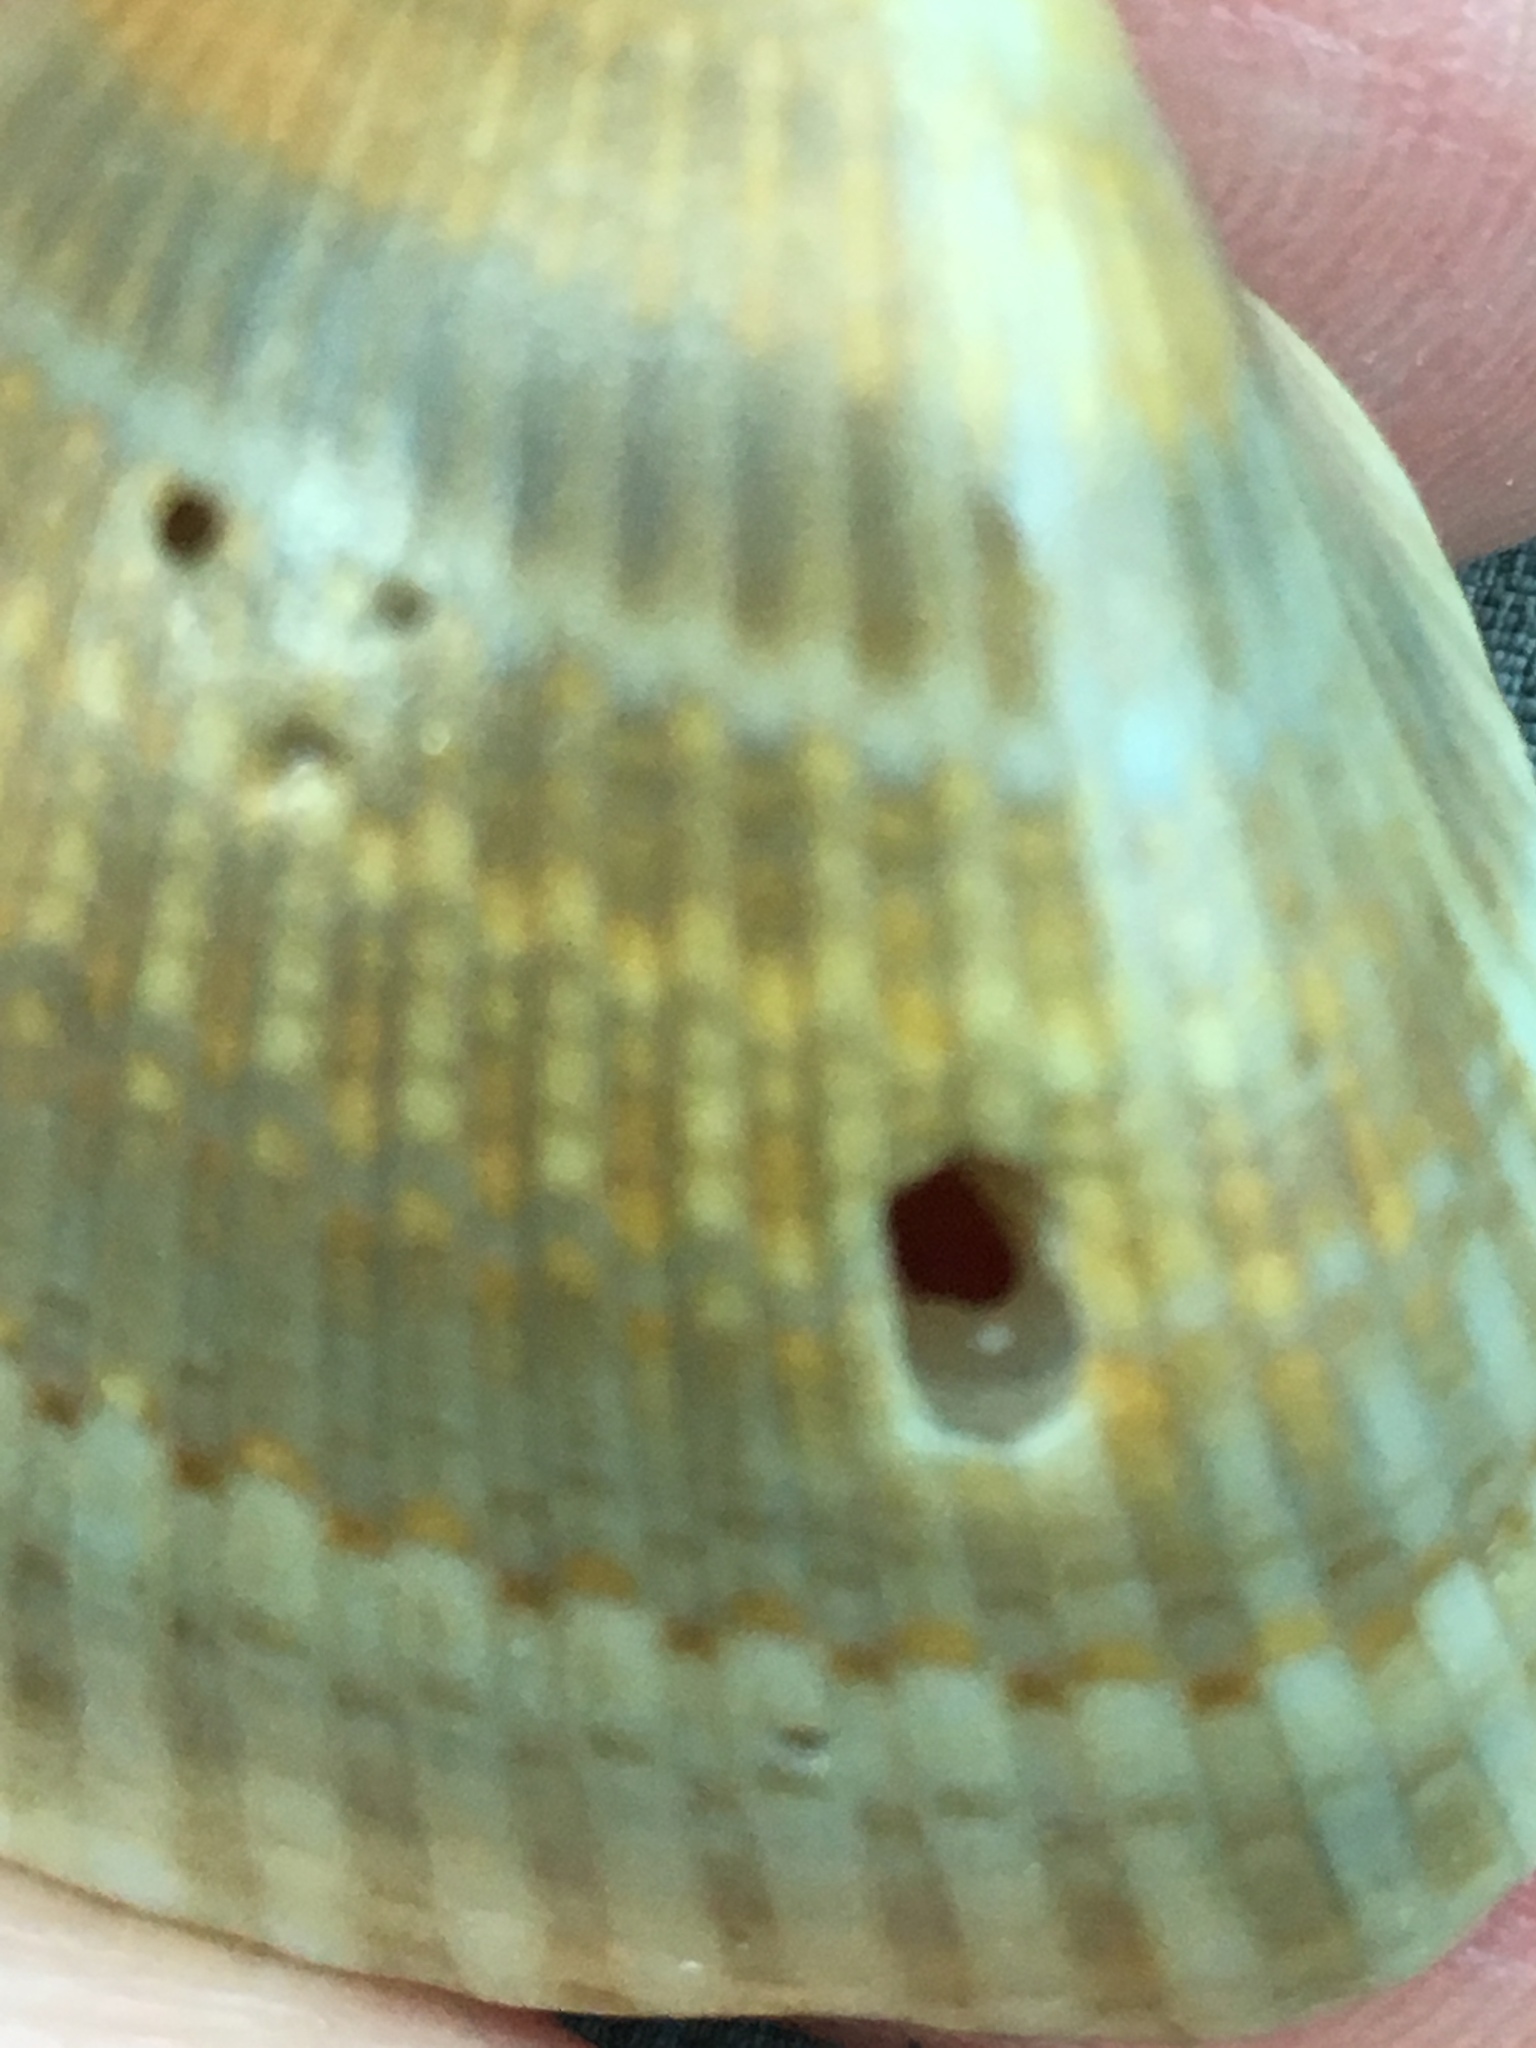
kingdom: Animalia
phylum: Mollusca
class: Bivalvia
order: Arcida
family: Noetiidae
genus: Noetia
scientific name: Noetia ponderosa
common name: Ponderous ark
